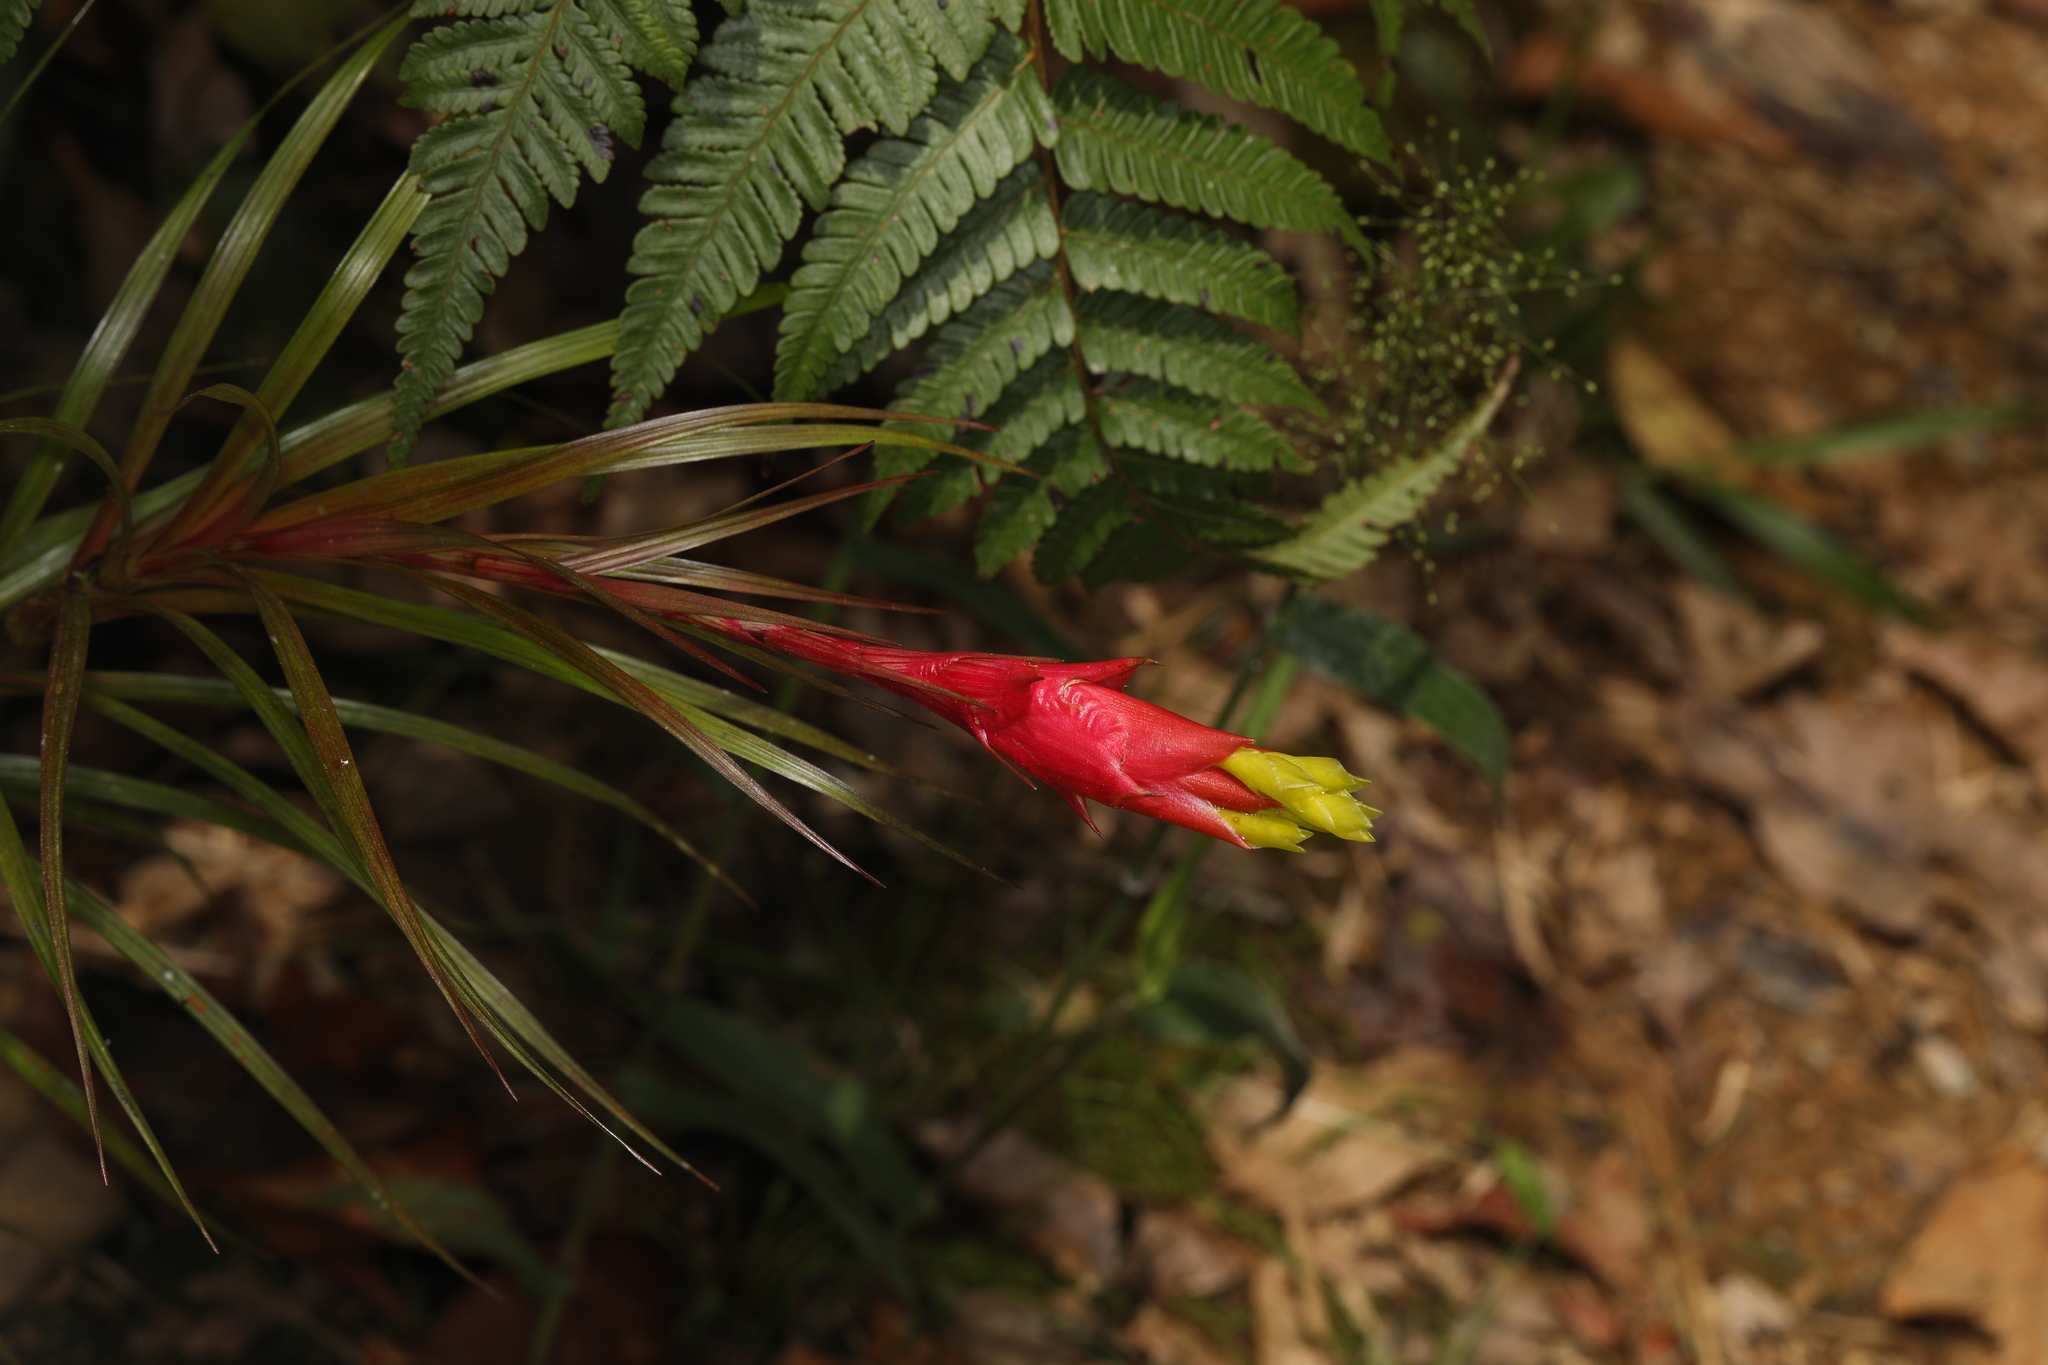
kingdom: Plantae
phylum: Tracheophyta
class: Liliopsida
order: Poales
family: Bromeliaceae
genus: Guzmania
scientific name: Guzmania pearcei
